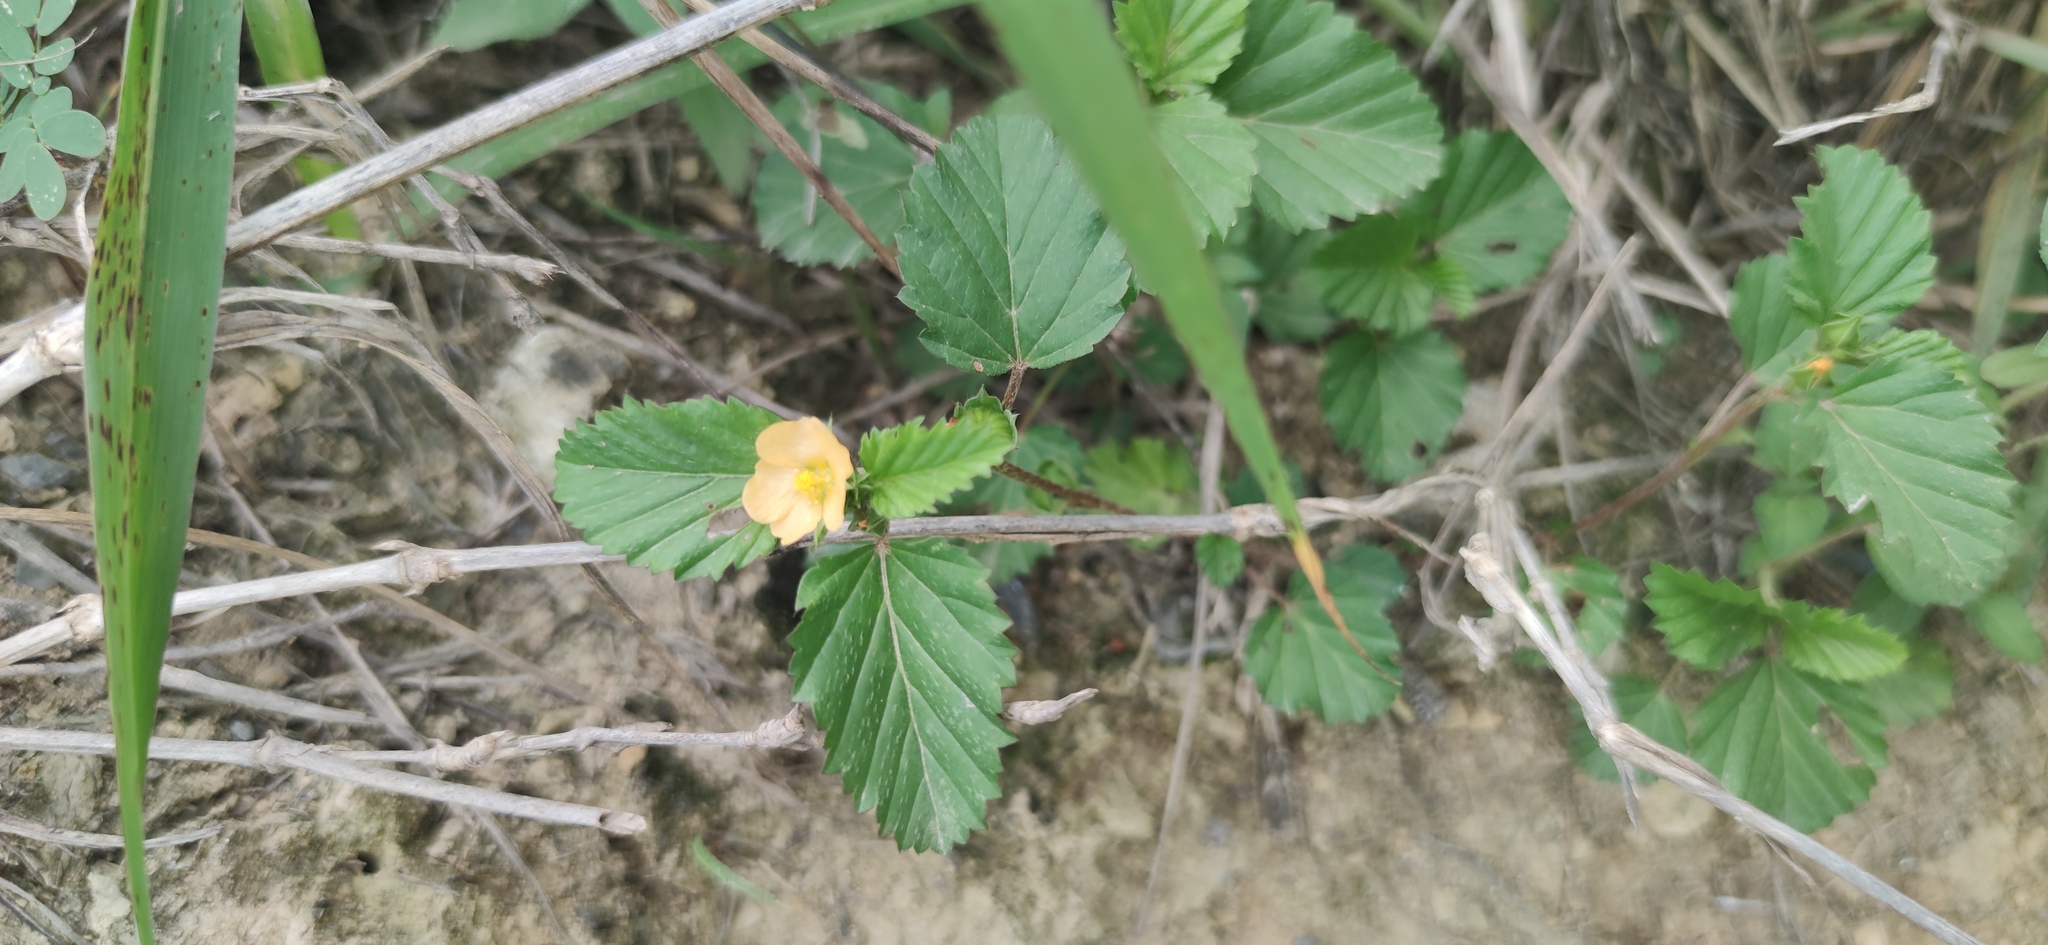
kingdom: Plantae
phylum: Tracheophyta
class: Magnoliopsida
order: Malvales
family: Malvaceae
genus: Malvastrum
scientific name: Malvastrum coromandelianum
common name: Threelobe false mallow
